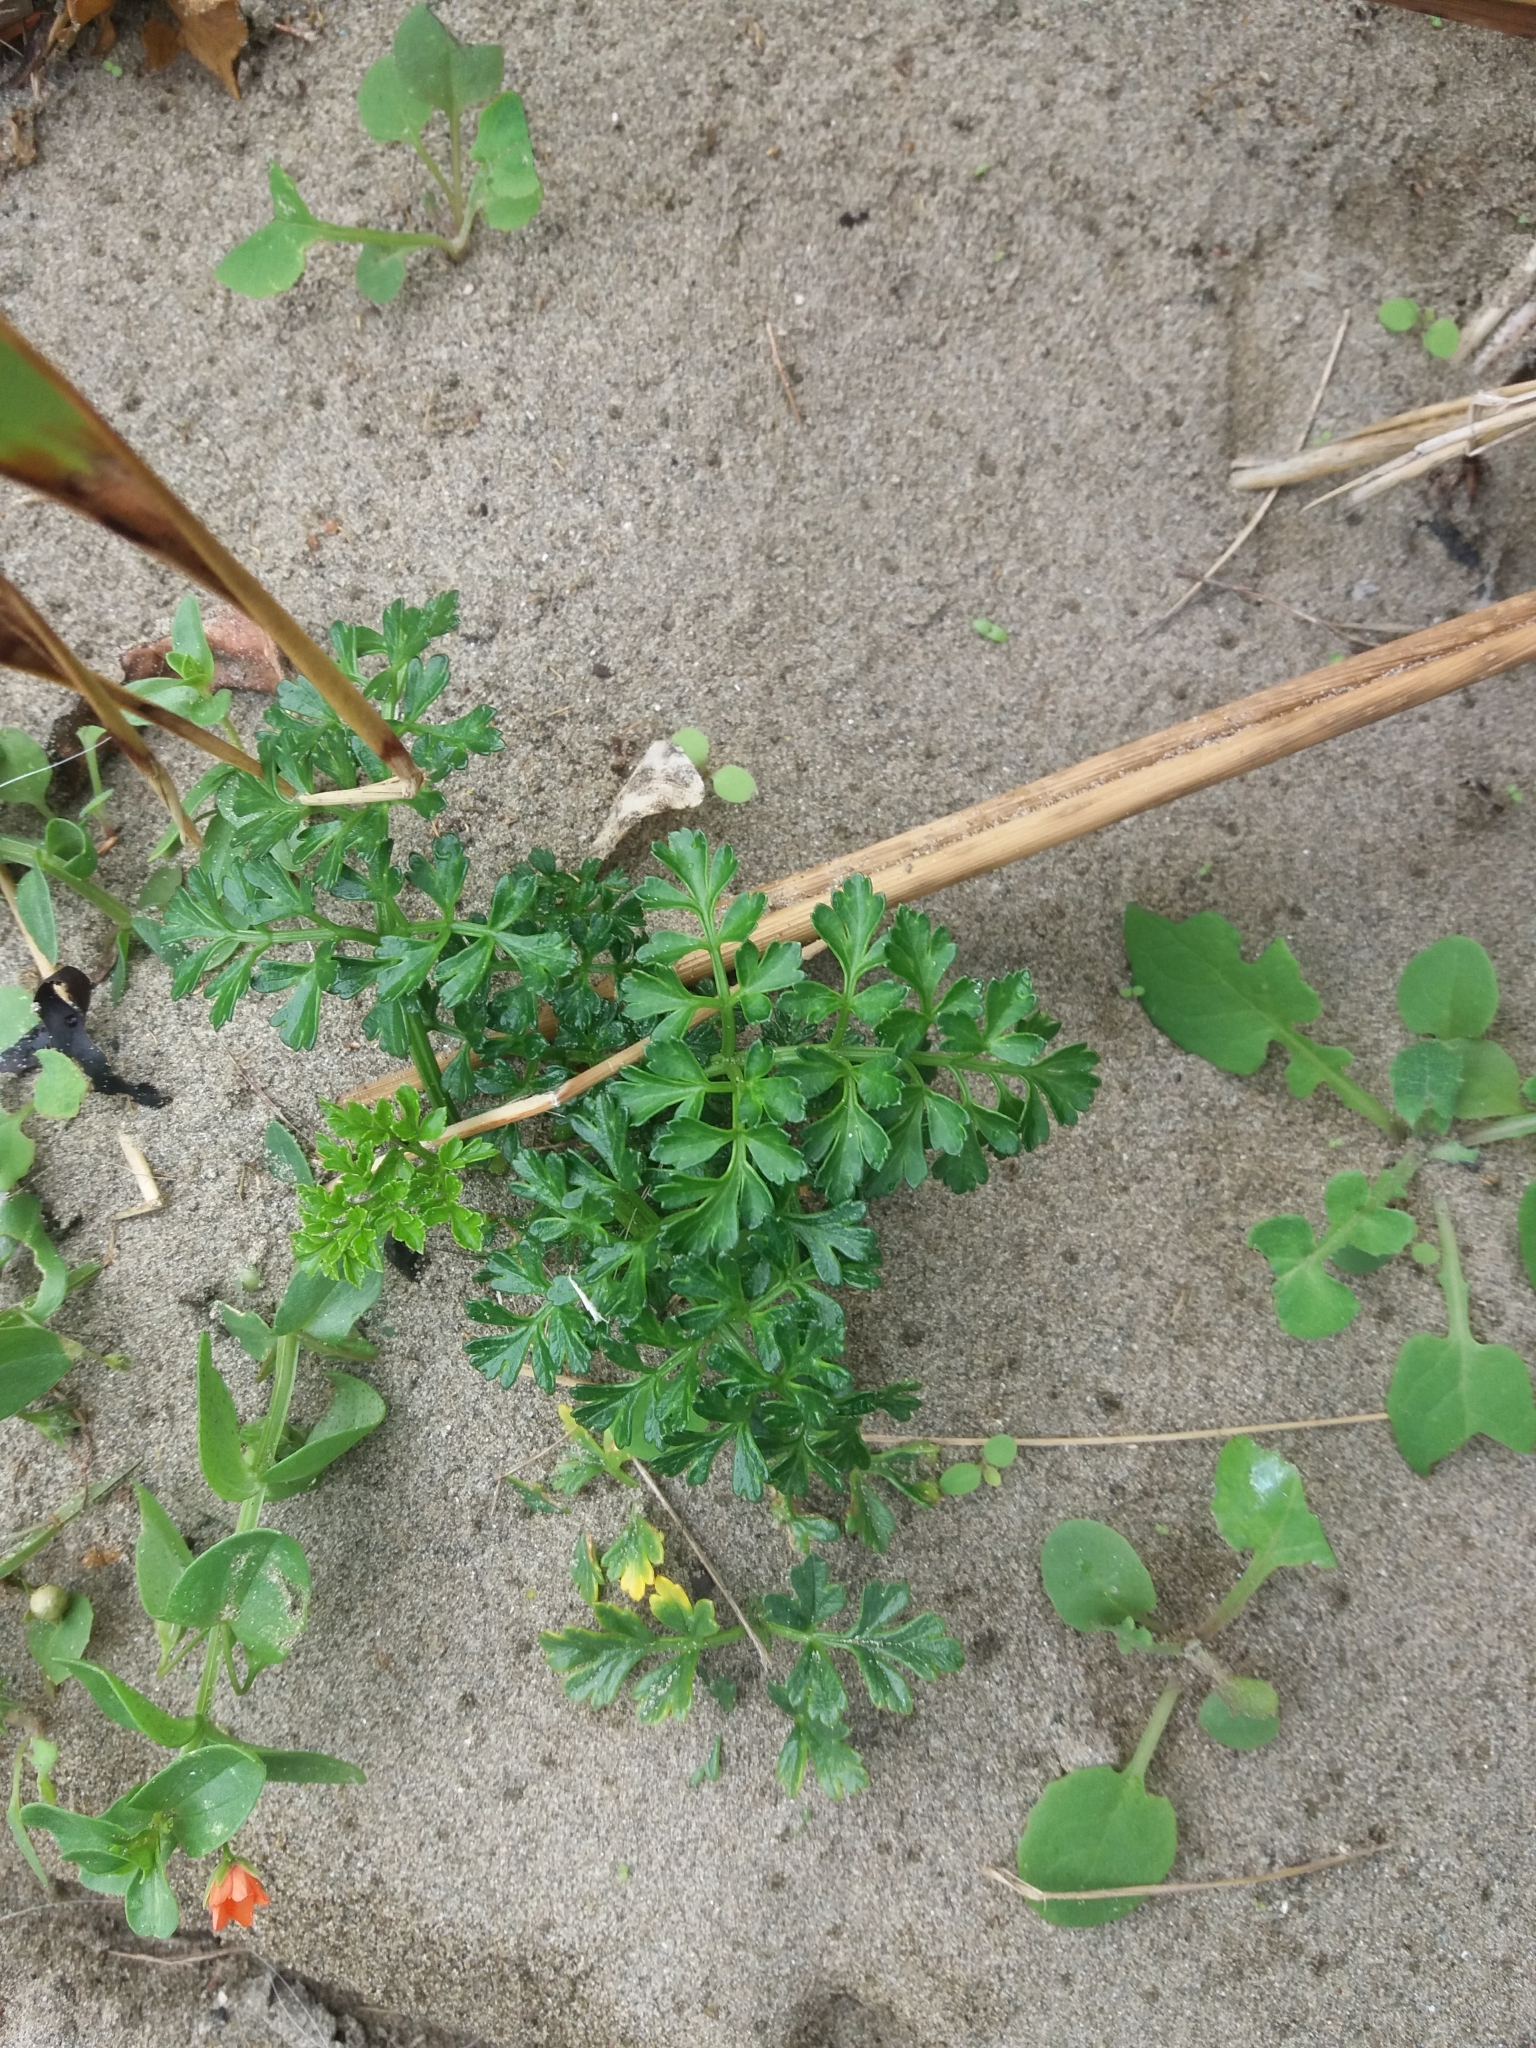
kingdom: Plantae
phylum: Tracheophyta
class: Magnoliopsida
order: Apiales
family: Apiaceae
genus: Apium
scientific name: Apium prostratum
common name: Prostrate marshwort
